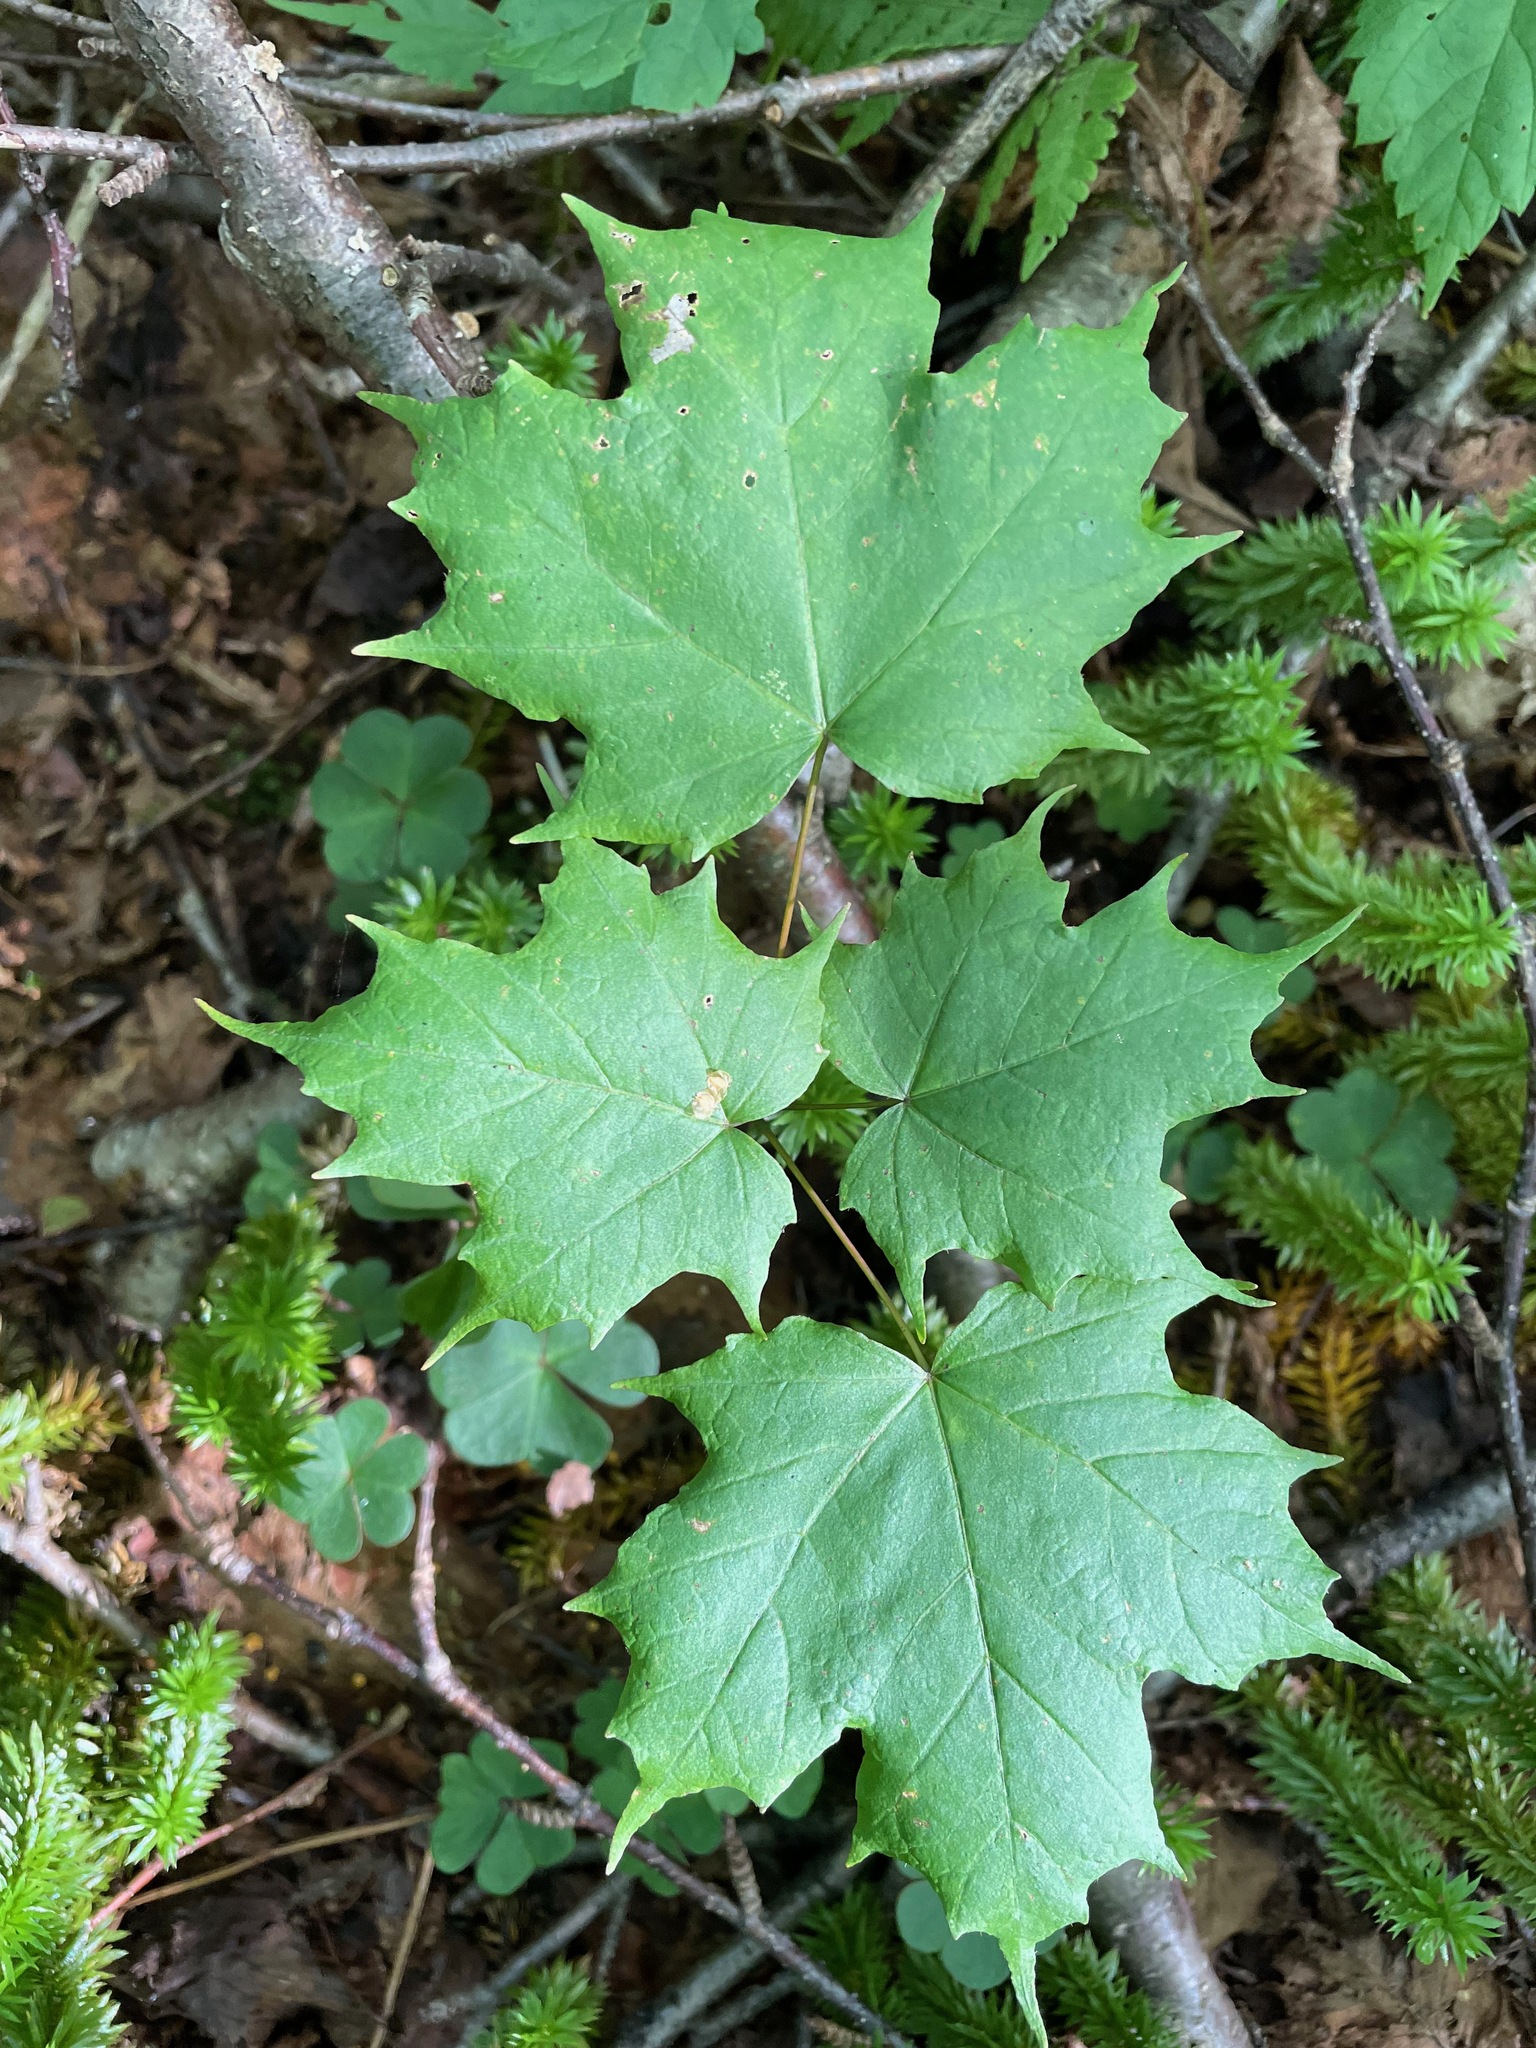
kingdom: Plantae
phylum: Tracheophyta
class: Magnoliopsida
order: Sapindales
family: Sapindaceae
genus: Acer
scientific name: Acer saccharum
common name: Sugar maple
